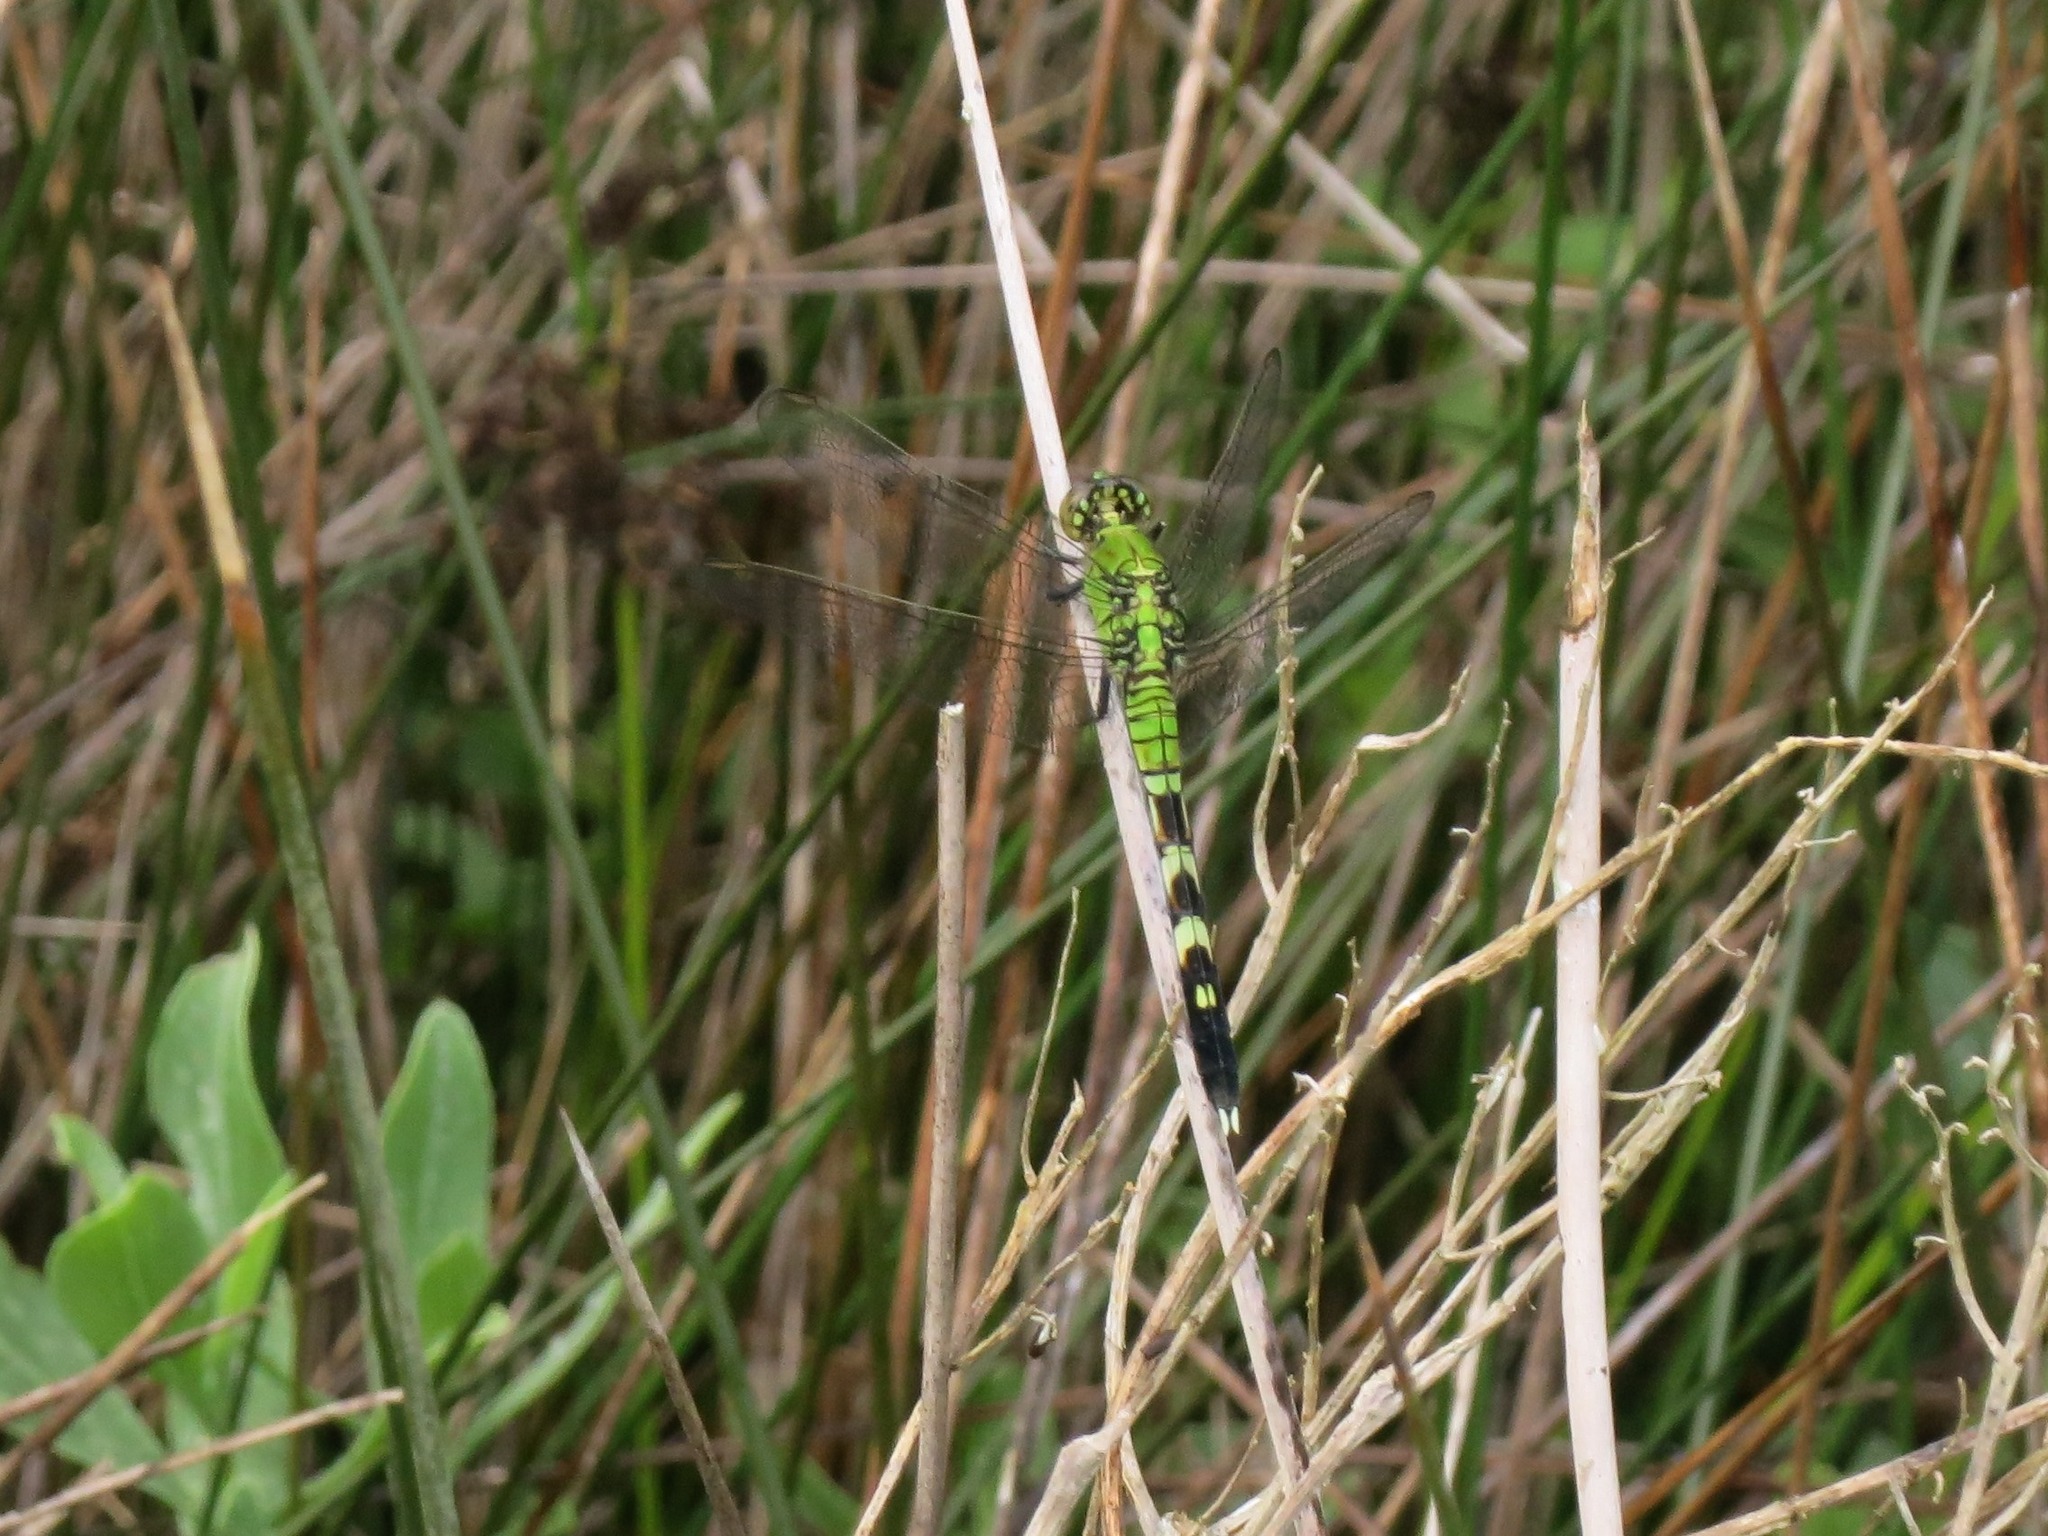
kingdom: Animalia
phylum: Arthropoda
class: Insecta
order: Odonata
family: Libellulidae
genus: Erythemis
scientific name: Erythemis simplicicollis
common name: Eastern pondhawk
